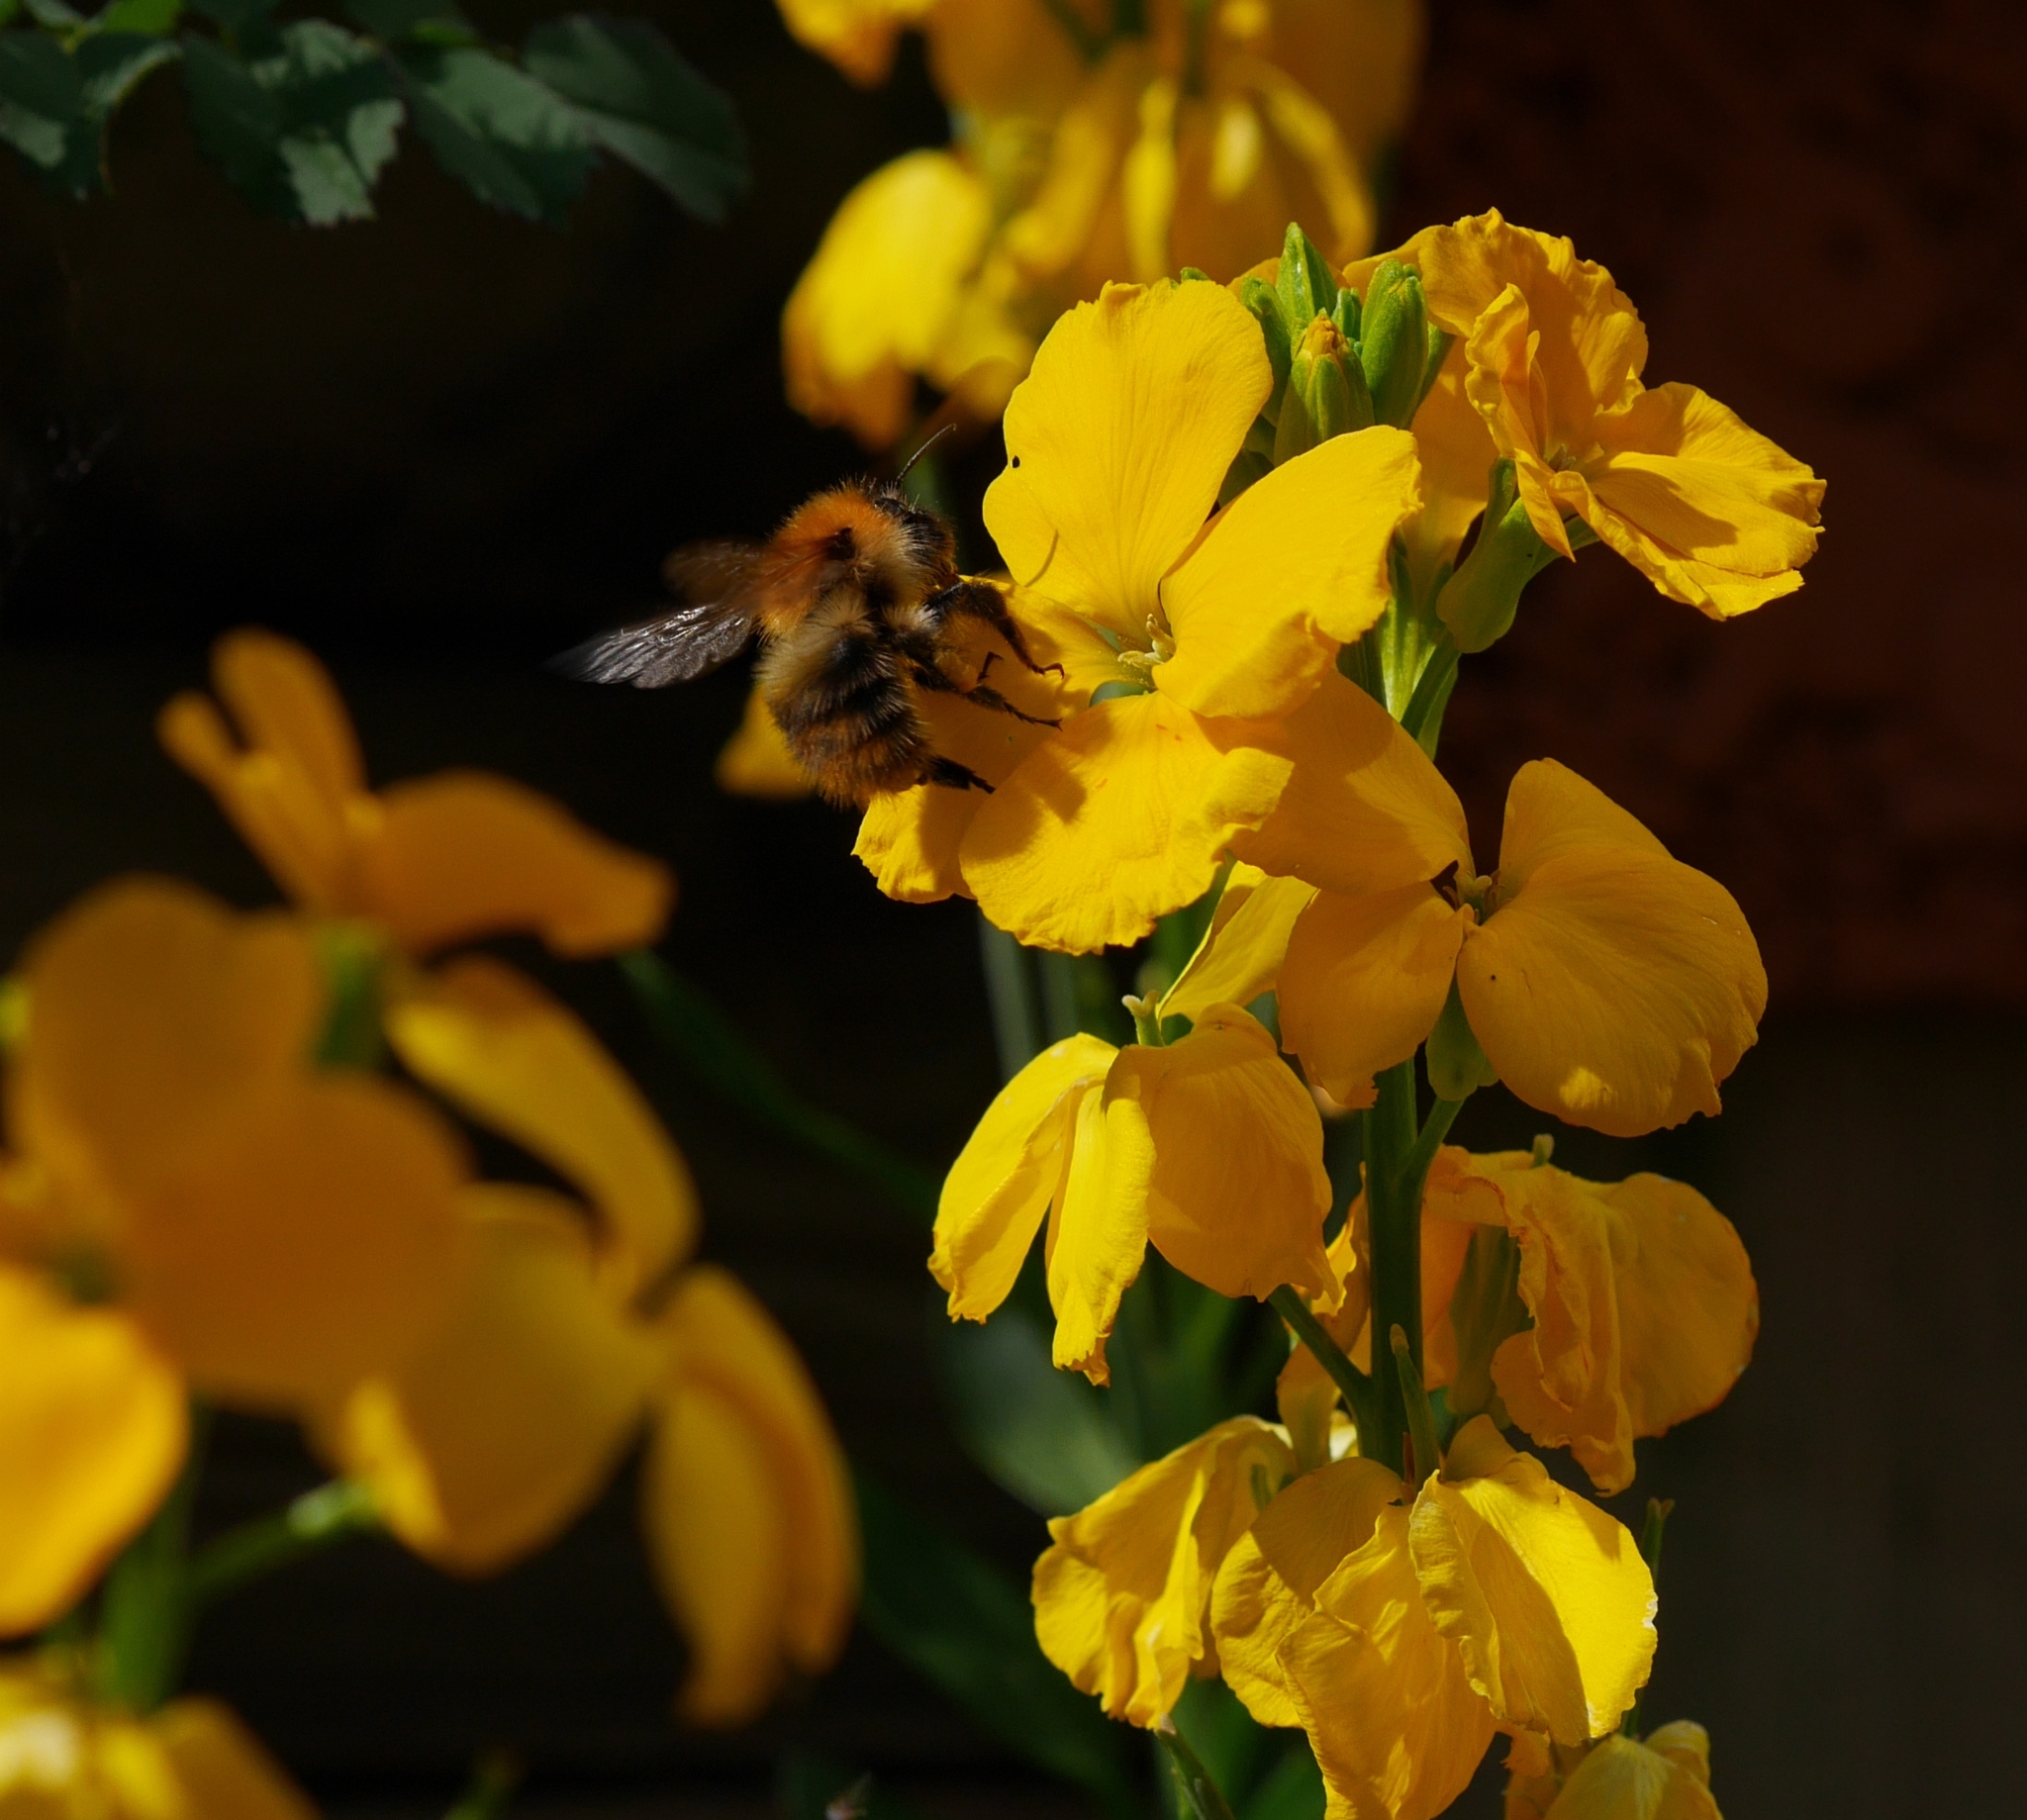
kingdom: Animalia
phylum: Arthropoda
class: Insecta
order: Hymenoptera
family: Apidae
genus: Bombus
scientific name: Bombus pascuorum
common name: Common carder bee
